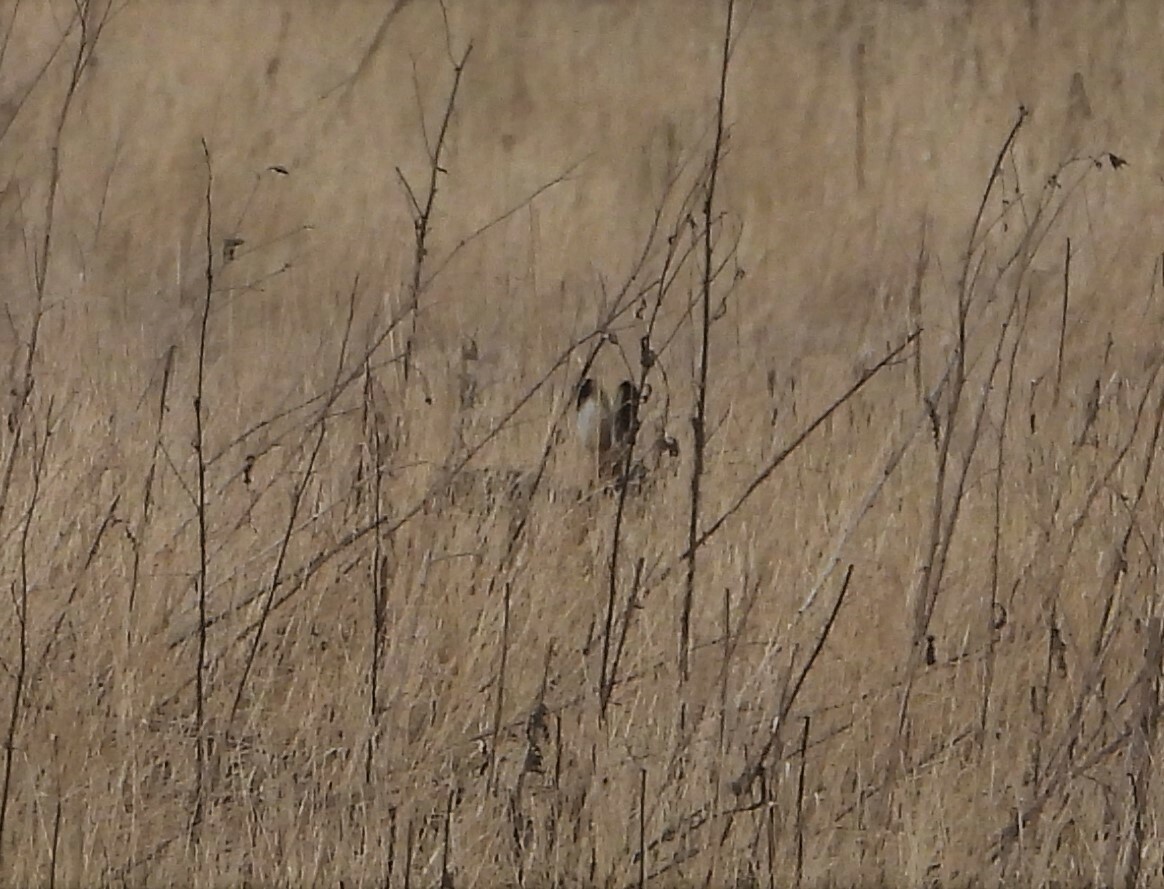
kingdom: Animalia
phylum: Chordata
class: Mammalia
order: Lagomorpha
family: Leporidae
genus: Lepus
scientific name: Lepus europaeus
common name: European hare
